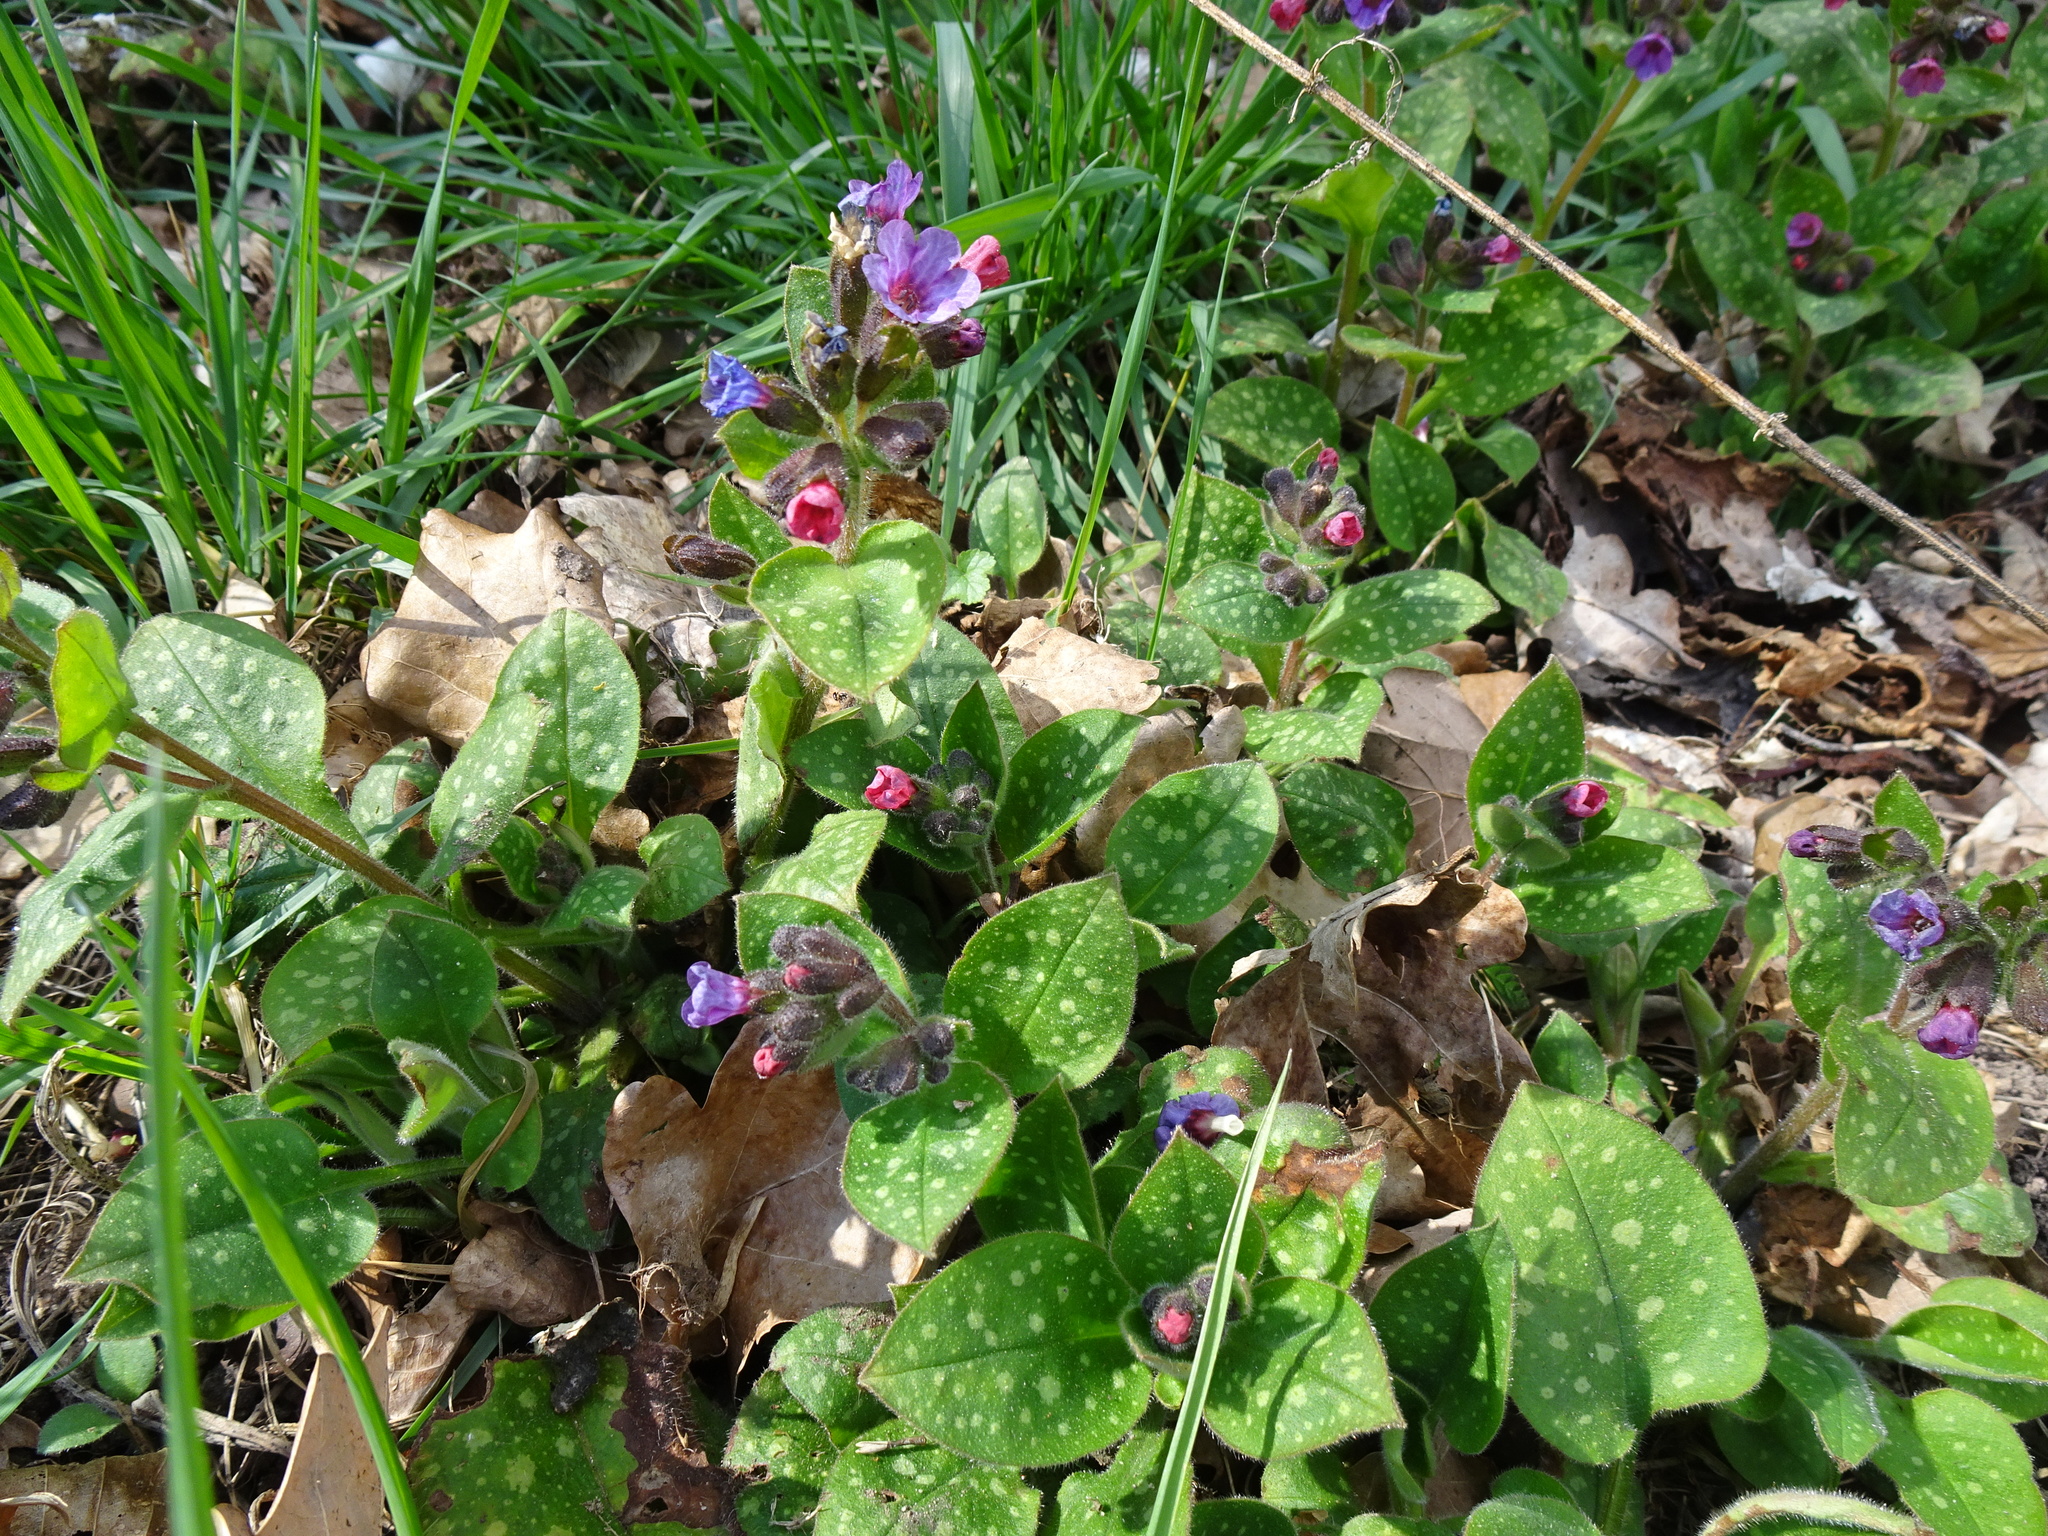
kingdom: Plantae
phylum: Tracheophyta
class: Magnoliopsida
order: Boraginales
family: Boraginaceae
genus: Pulmonaria
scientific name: Pulmonaria officinalis
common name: Lungwort
